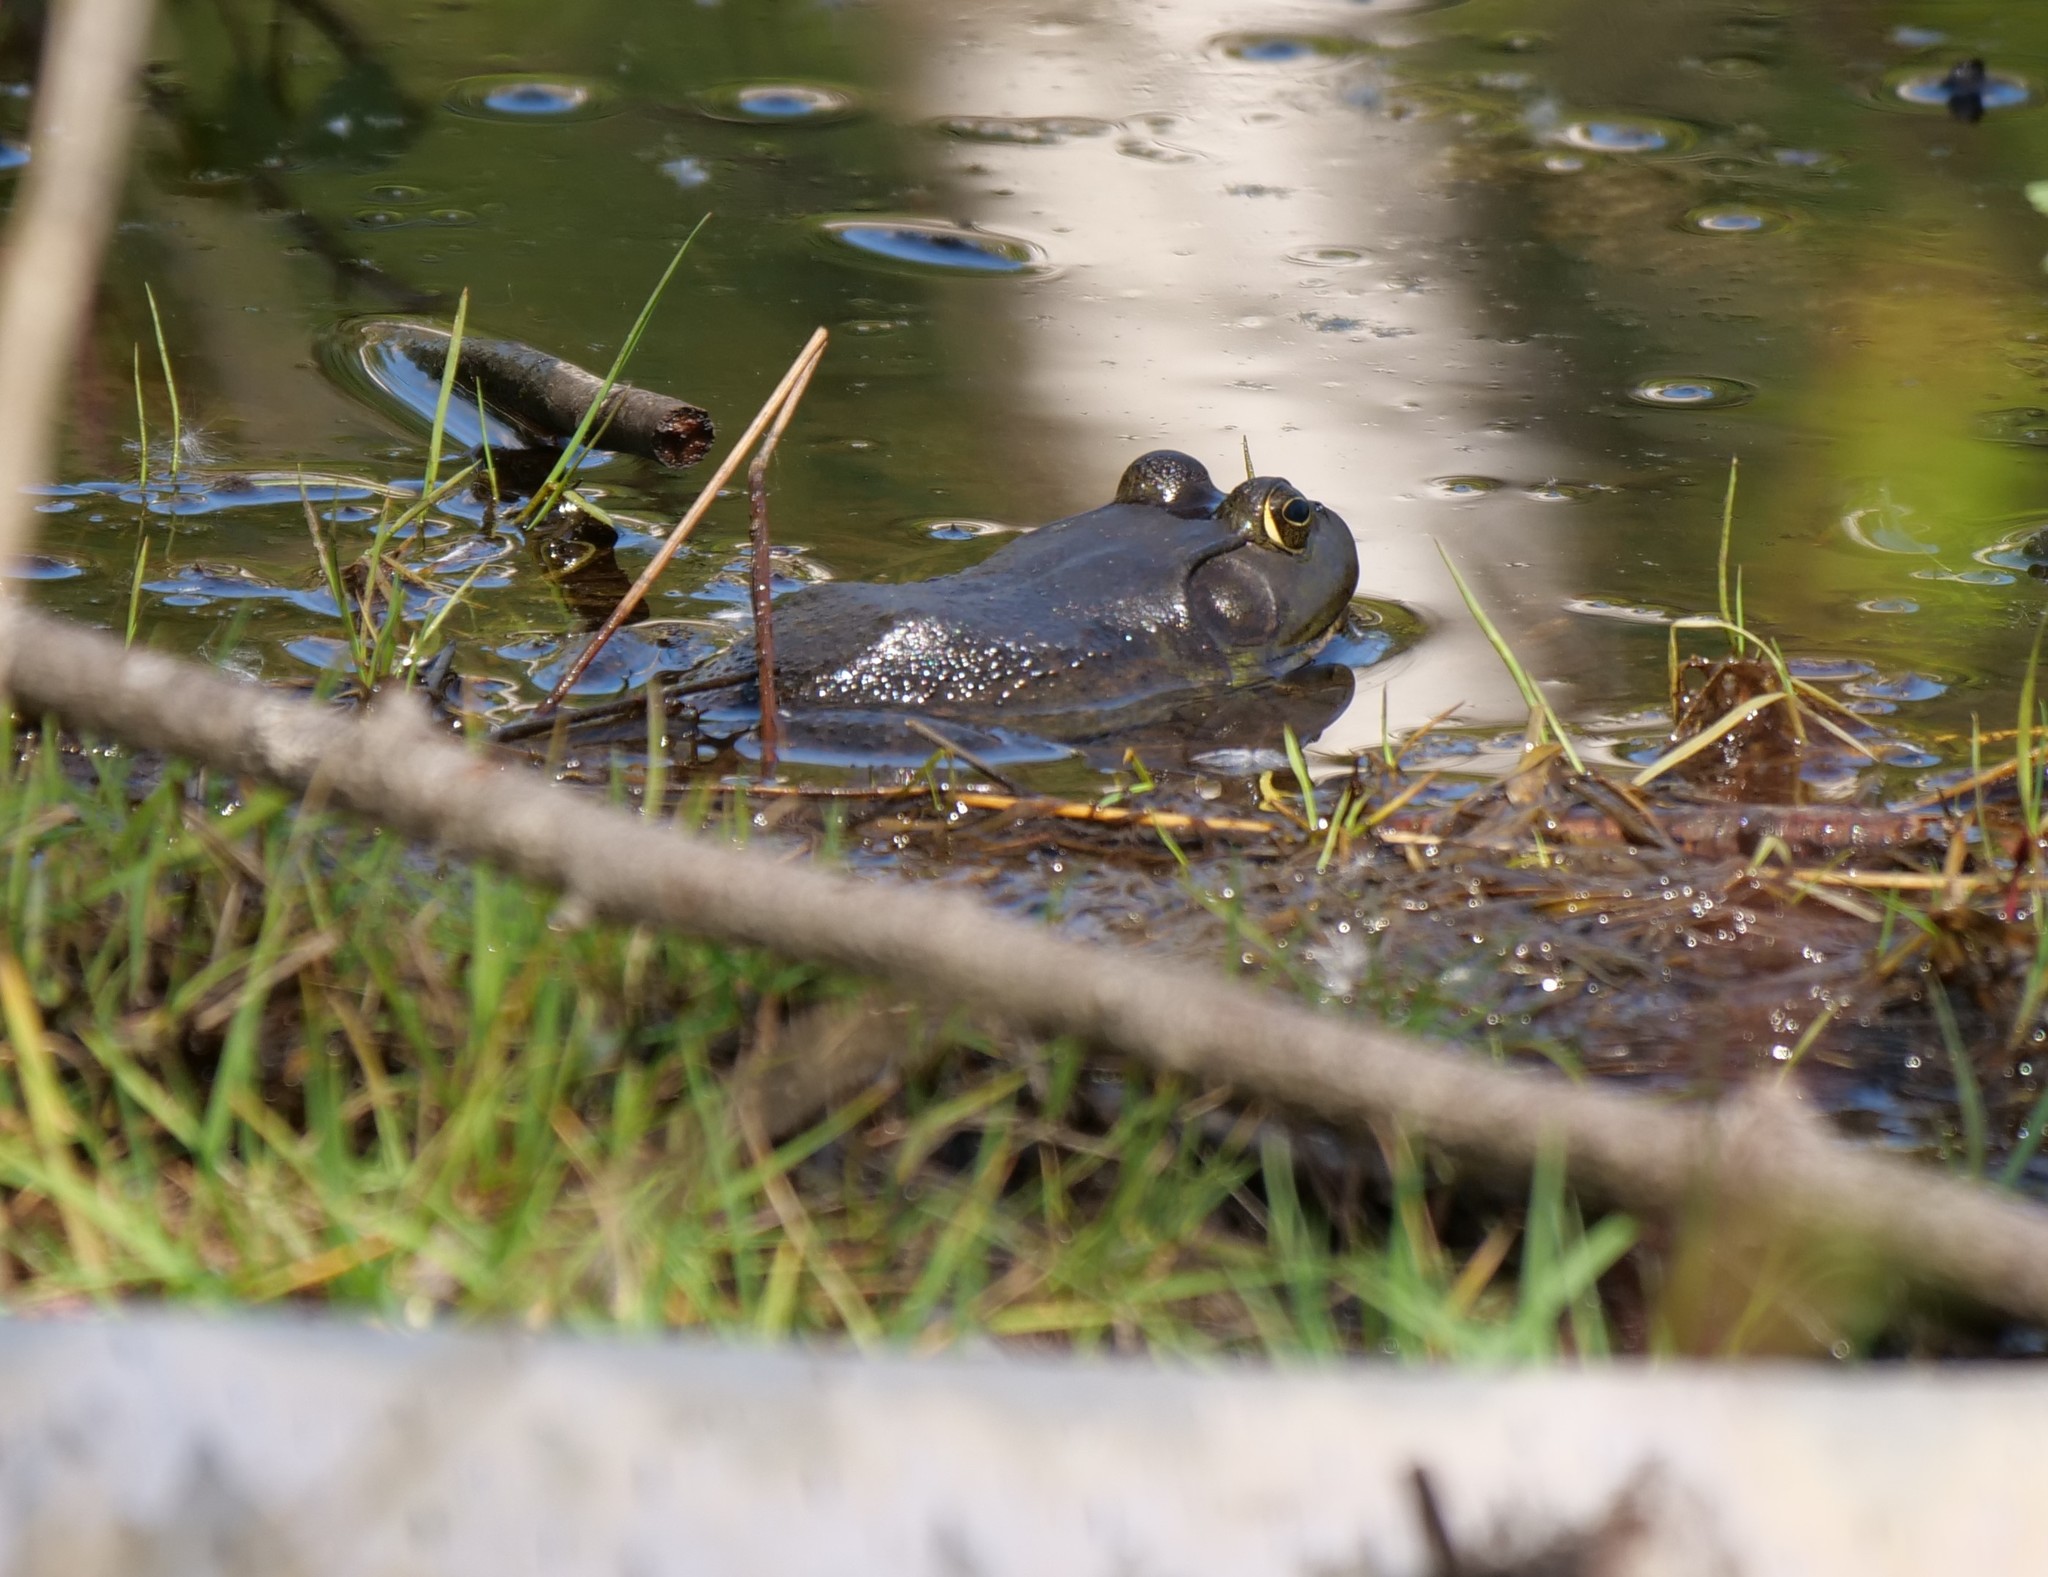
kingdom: Animalia
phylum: Chordata
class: Amphibia
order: Anura
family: Ranidae
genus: Lithobates
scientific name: Lithobates catesbeianus
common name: American bullfrog
